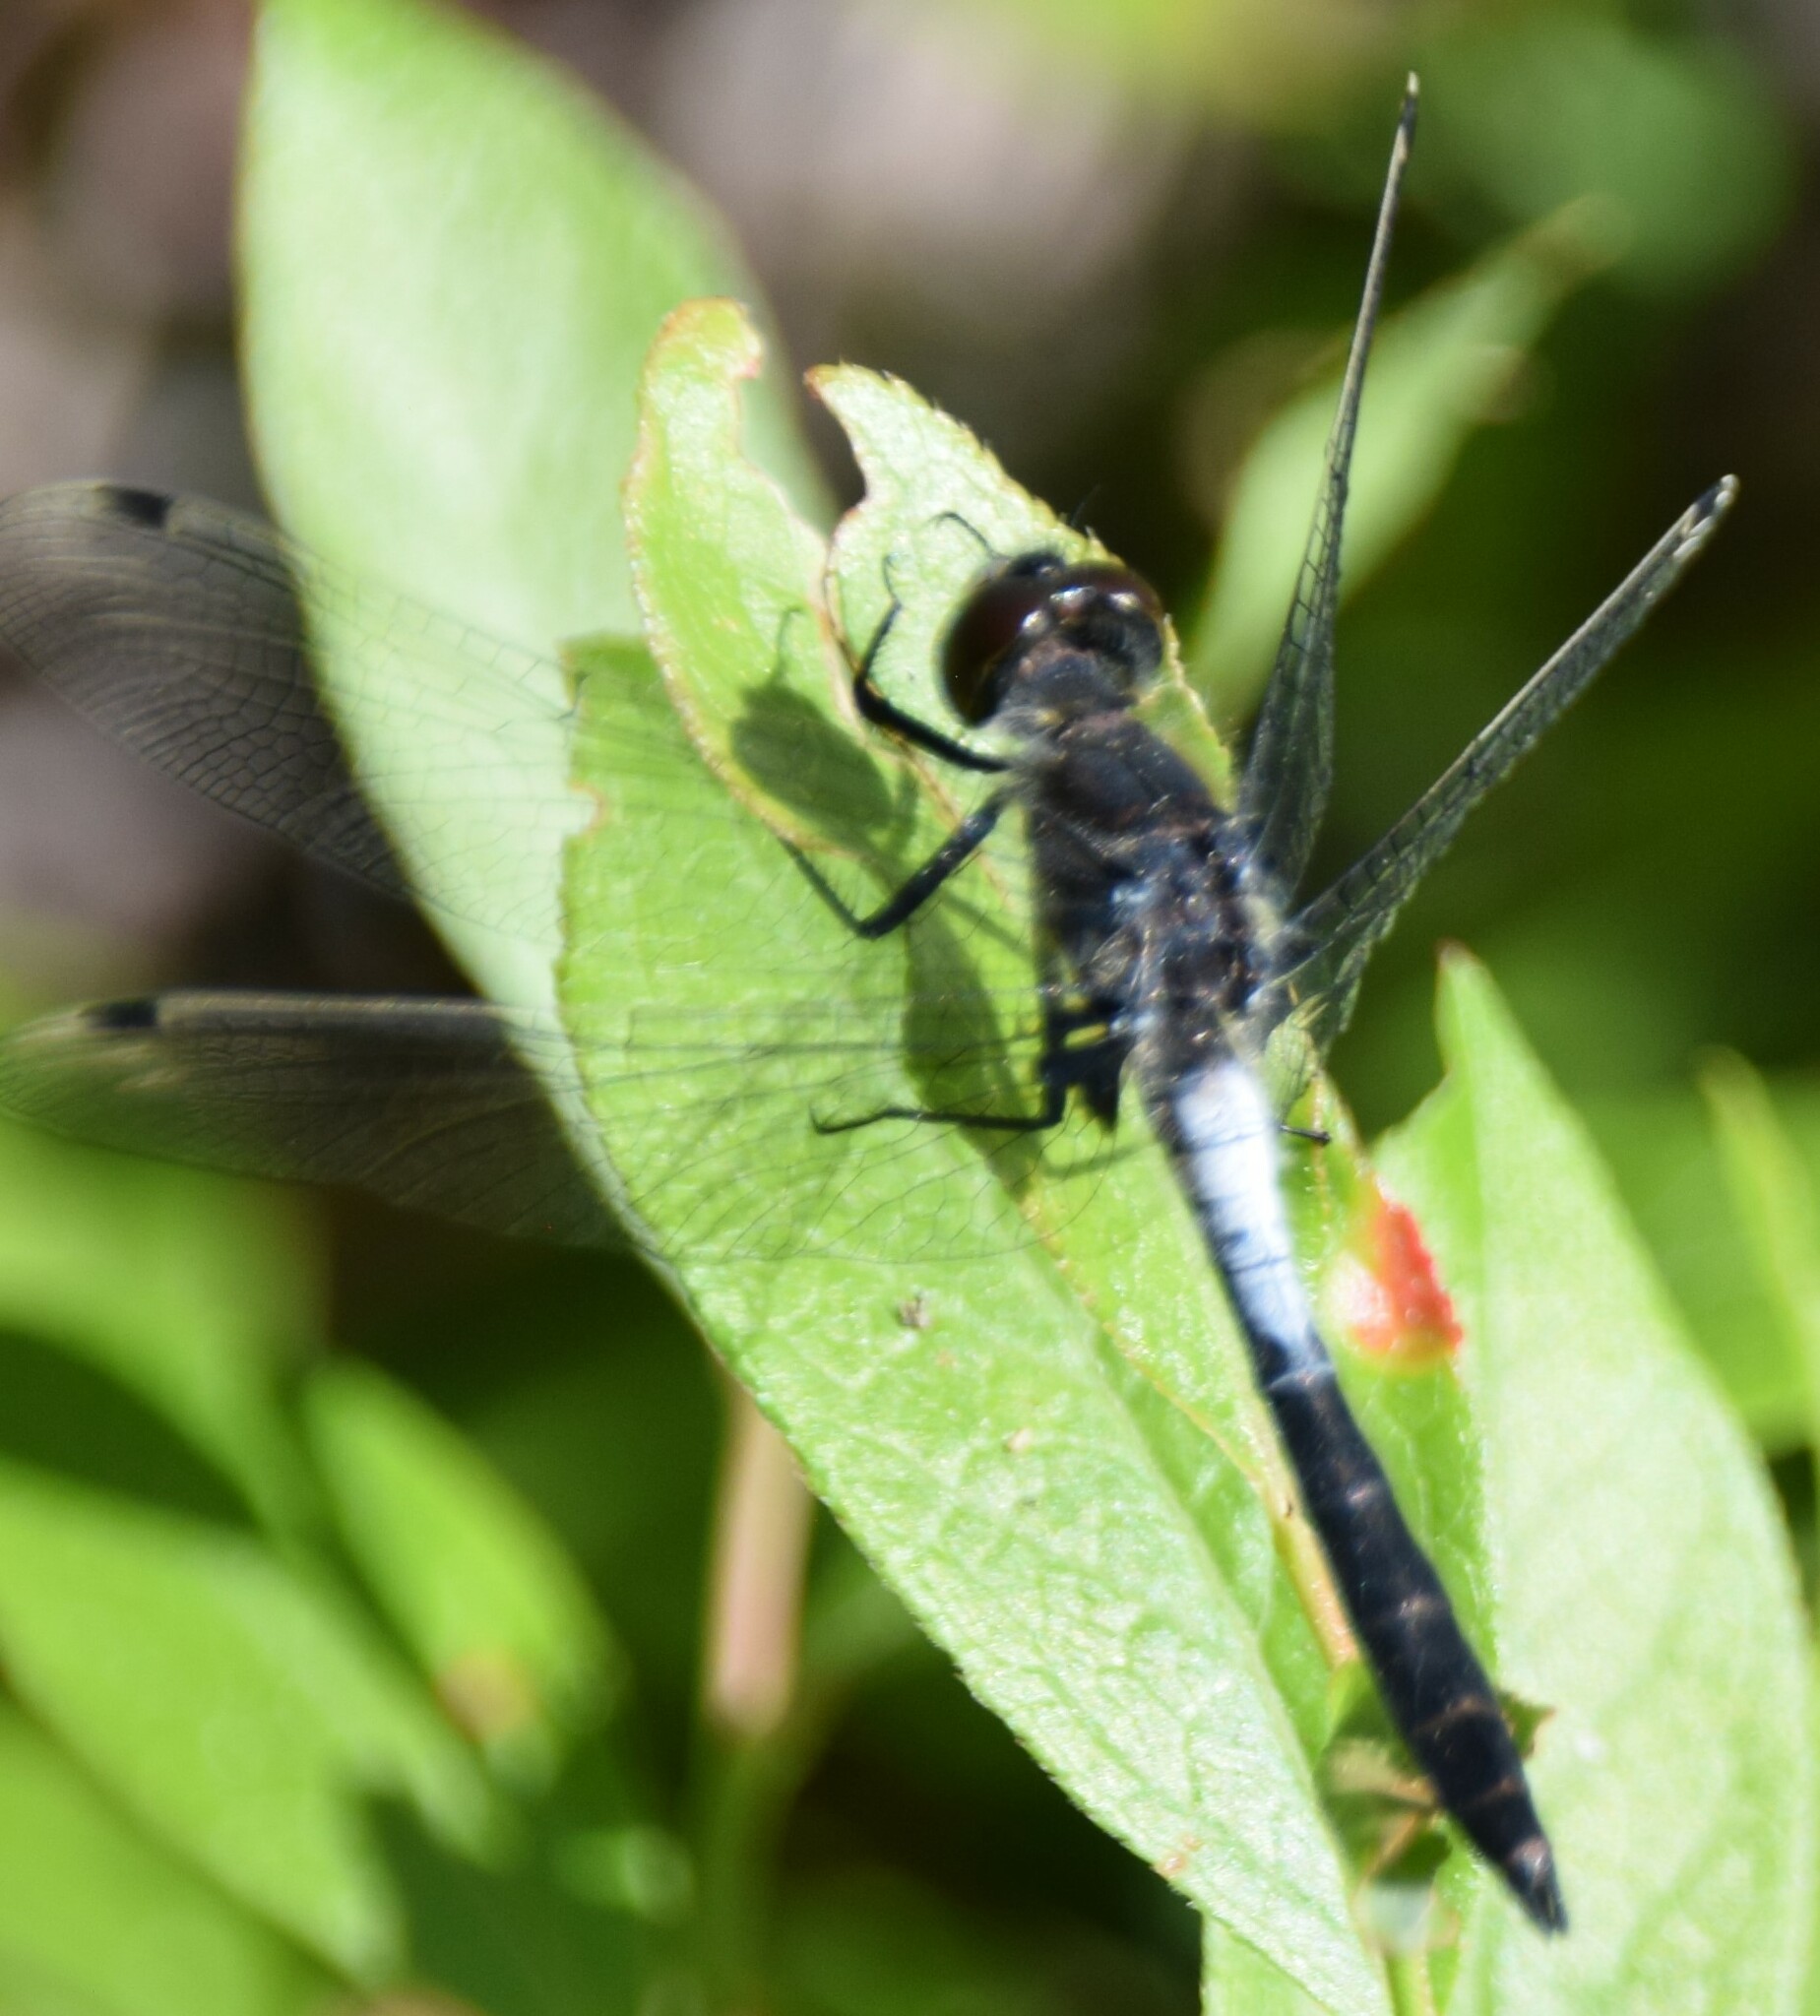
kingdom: Animalia
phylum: Arthropoda
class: Insecta
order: Odonata
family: Libellulidae
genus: Leucorrhinia
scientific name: Leucorrhinia frigida
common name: Frosted whiteface
